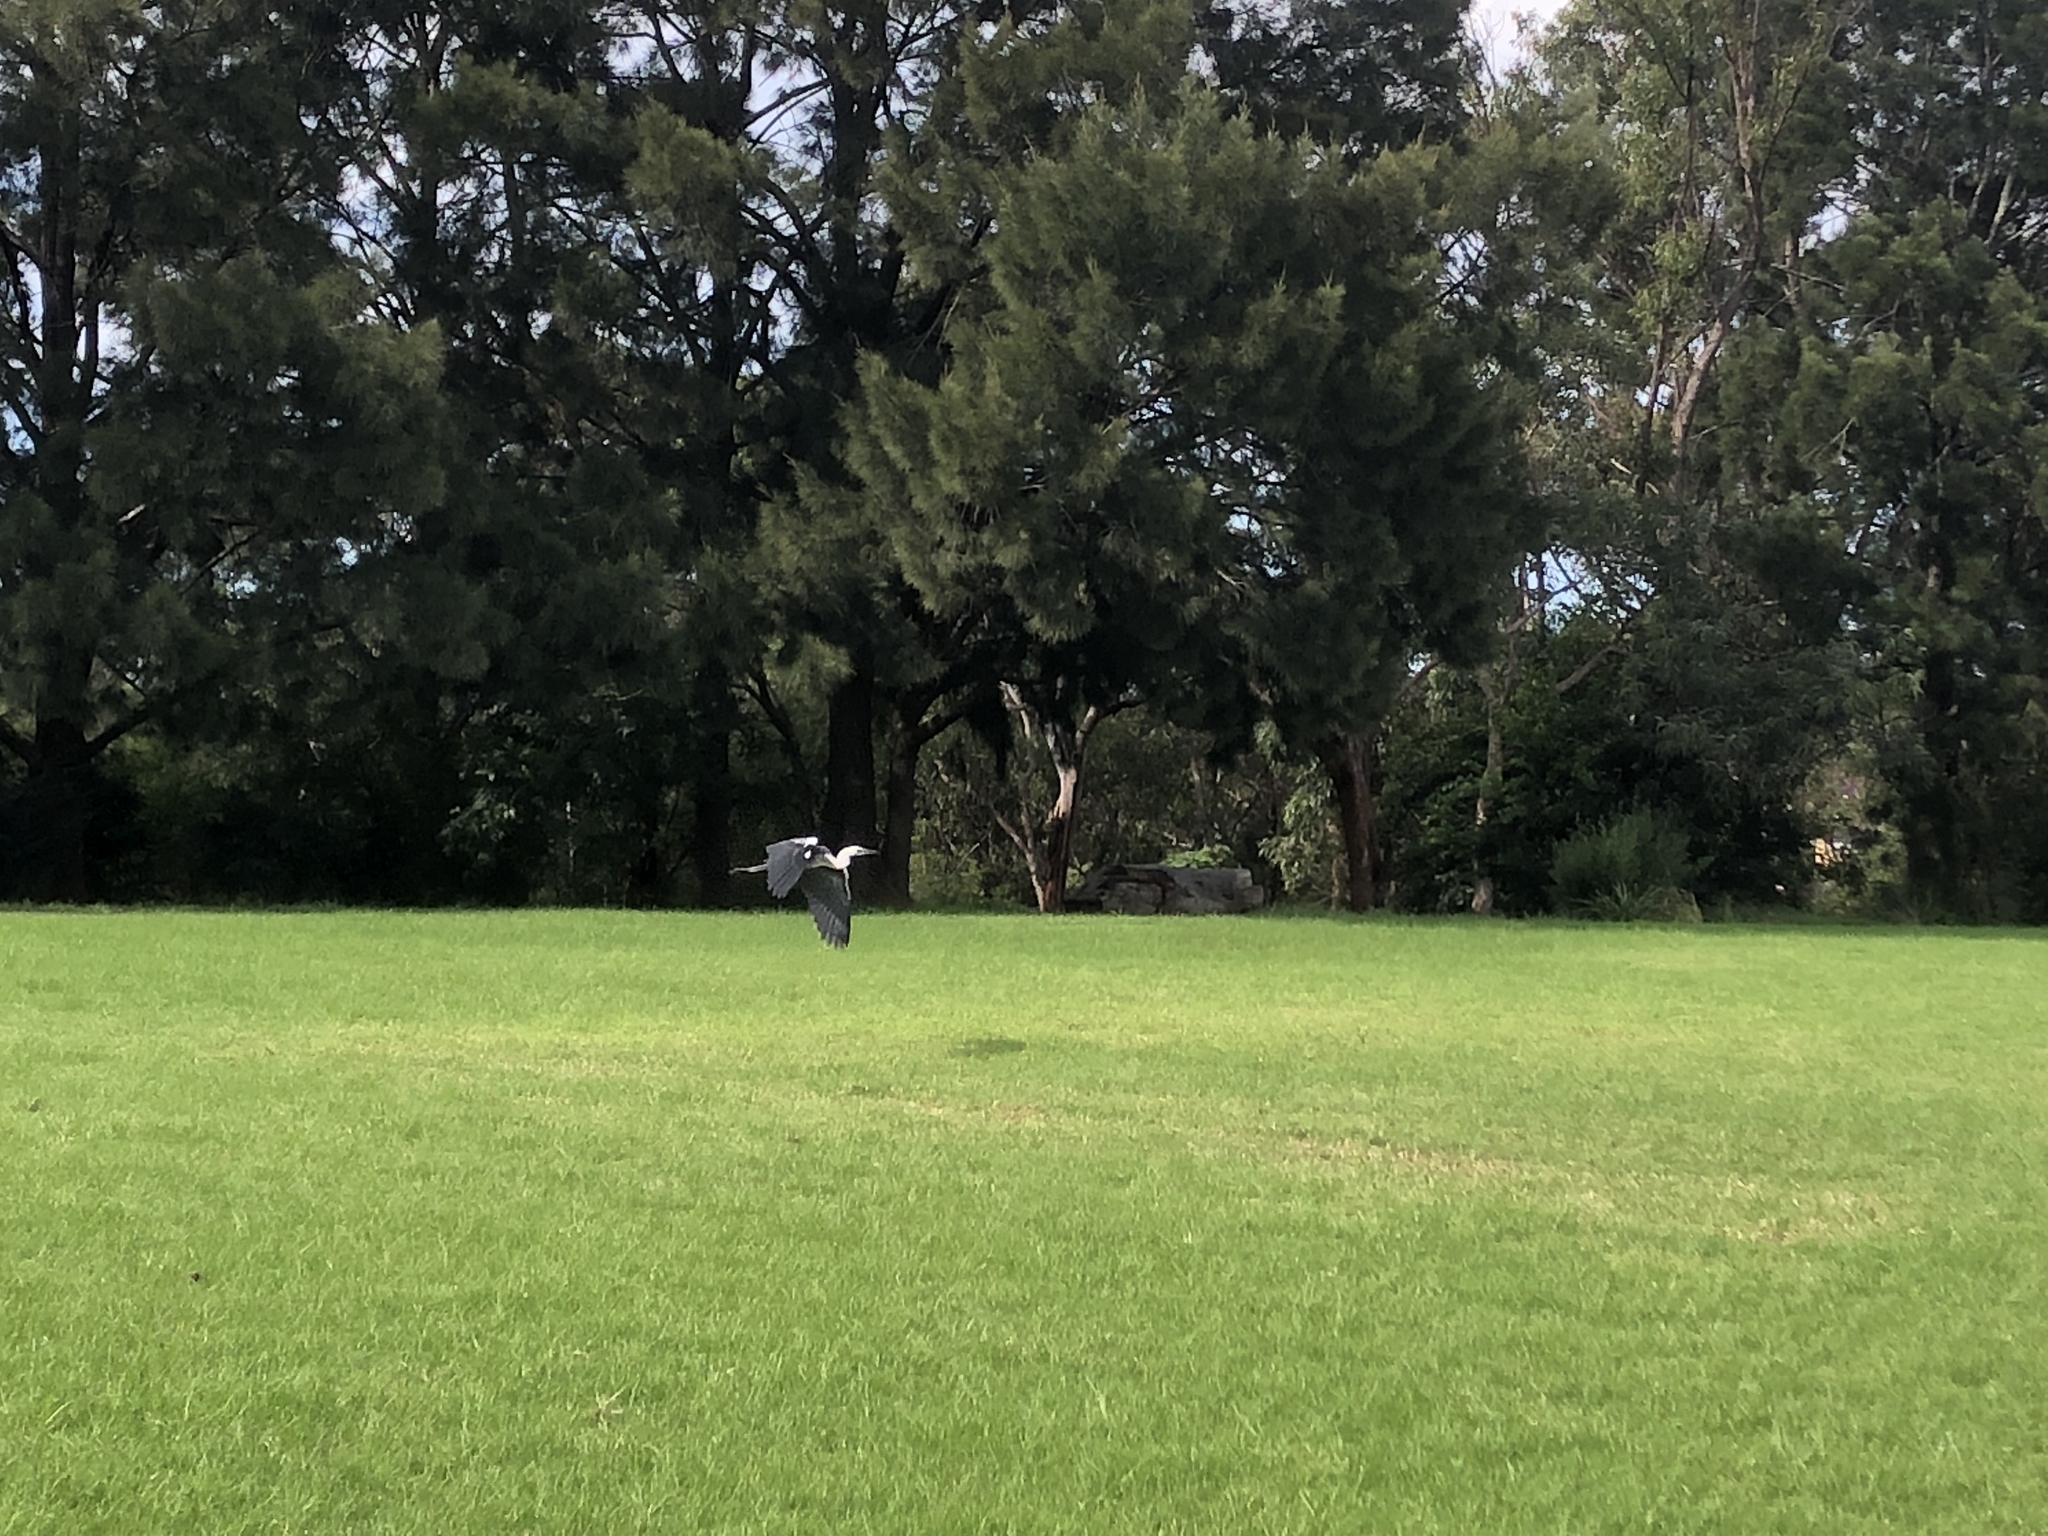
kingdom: Animalia
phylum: Chordata
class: Aves
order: Pelecaniformes
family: Ardeidae
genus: Ardea
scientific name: Ardea pacifica
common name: White-necked heron
